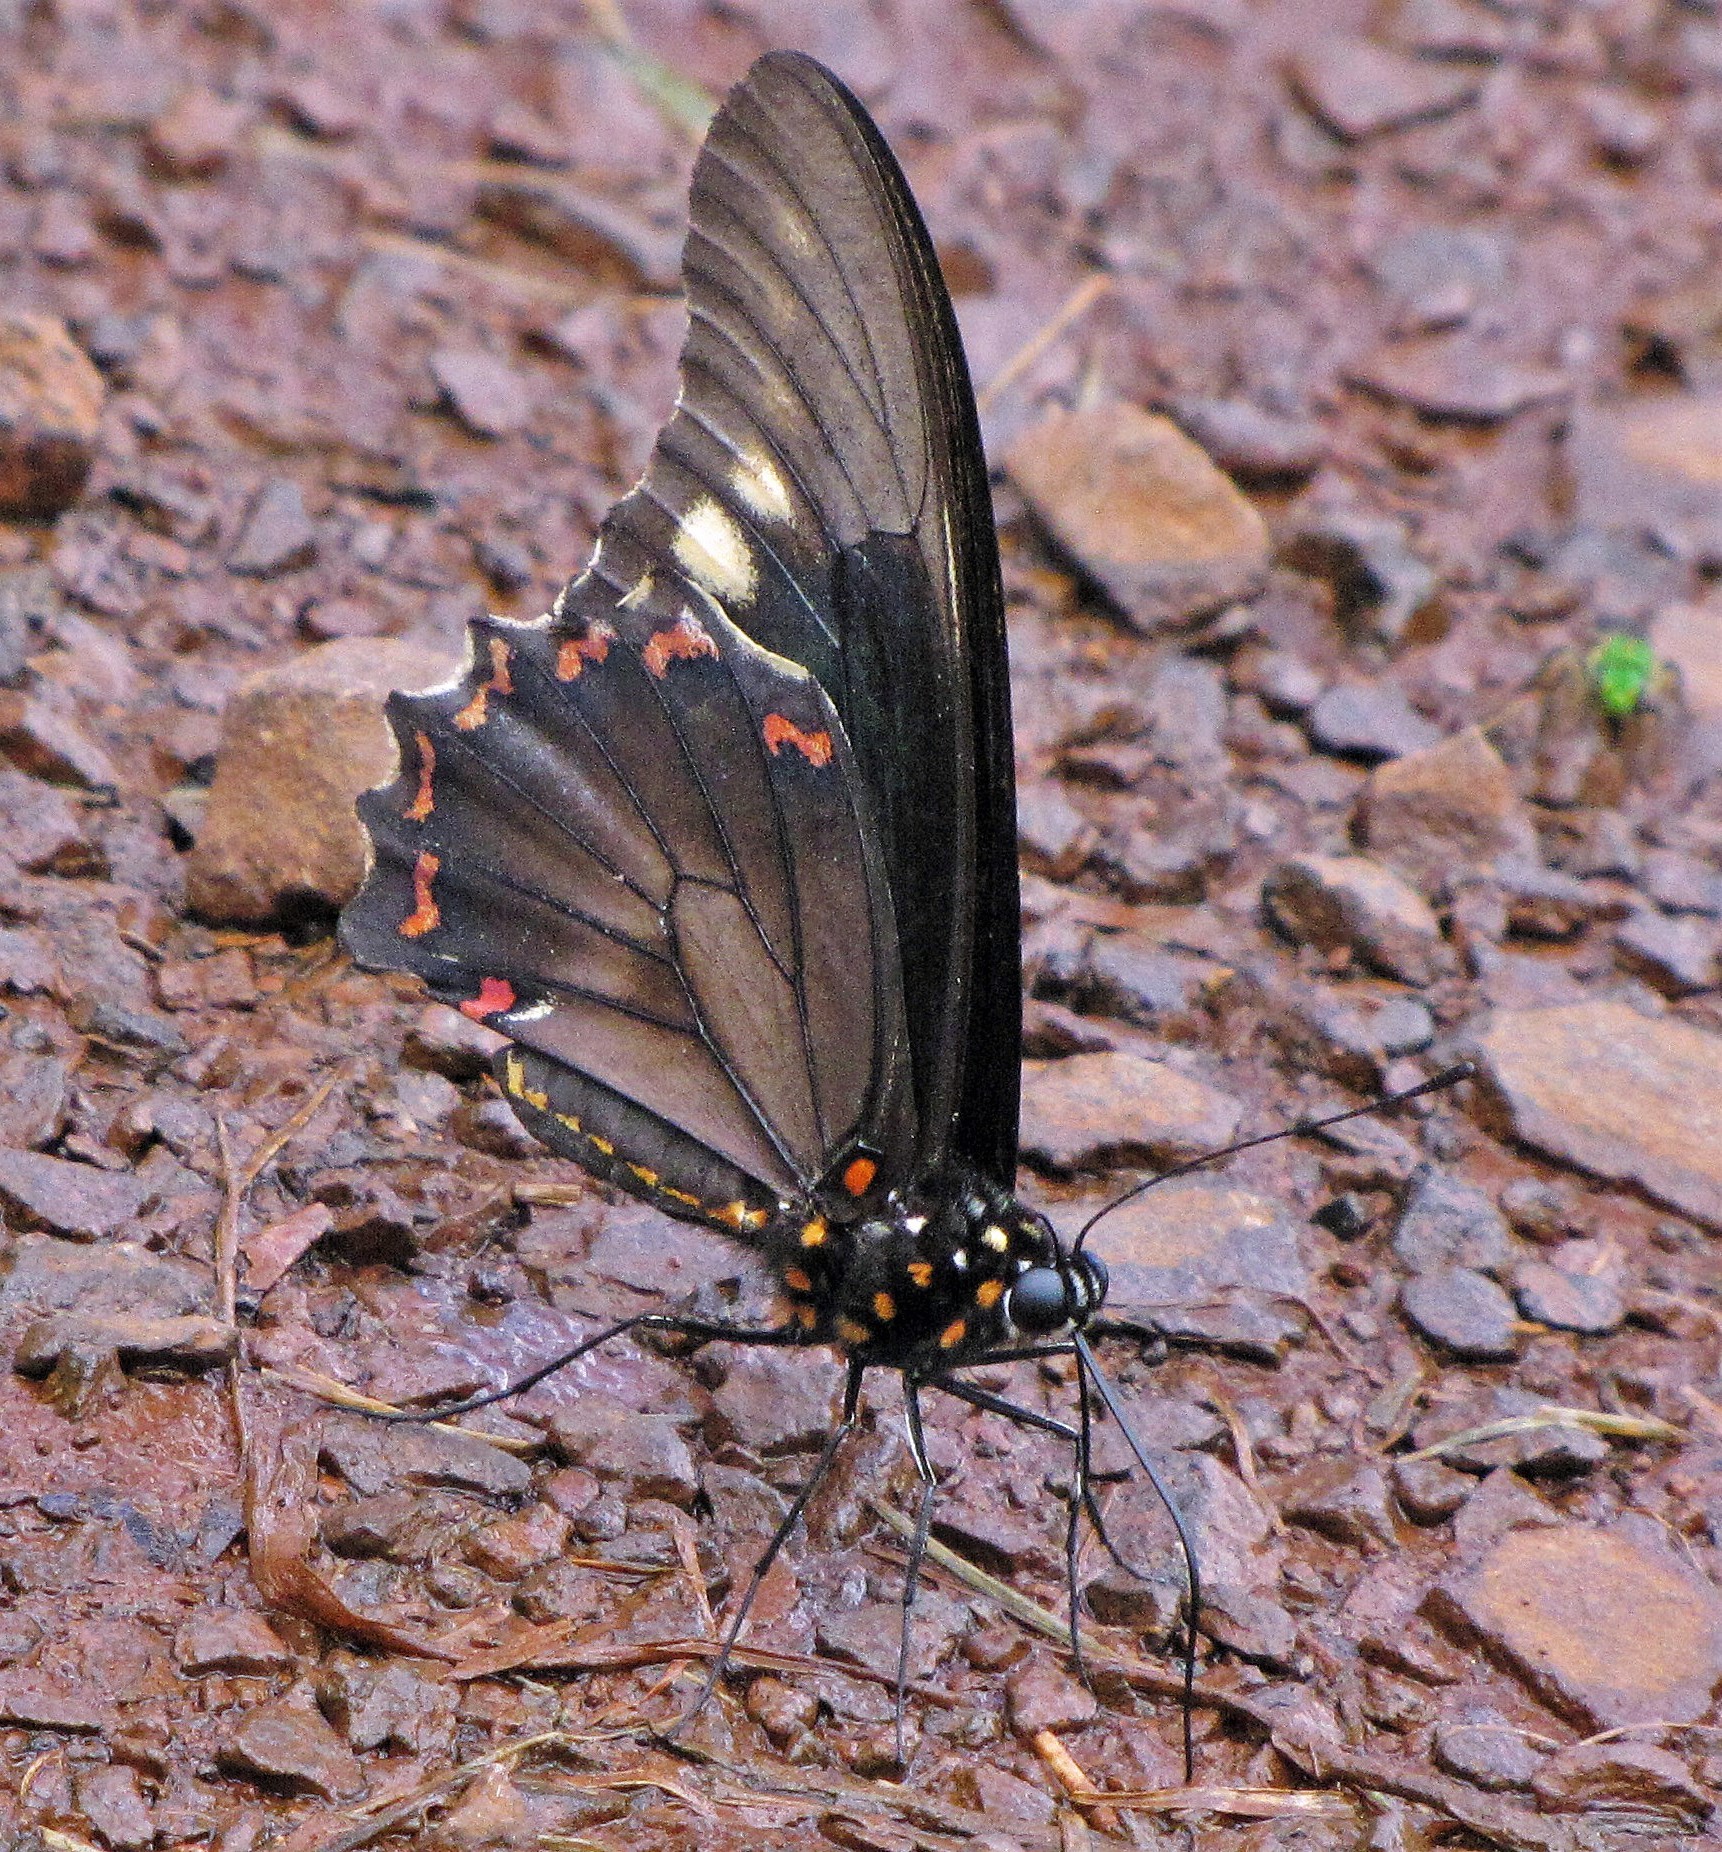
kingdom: Animalia
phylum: Arthropoda
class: Insecta
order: Lepidoptera
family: Papilionidae
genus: Battus
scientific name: Battus polydamas
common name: Polydamas swallowtail
